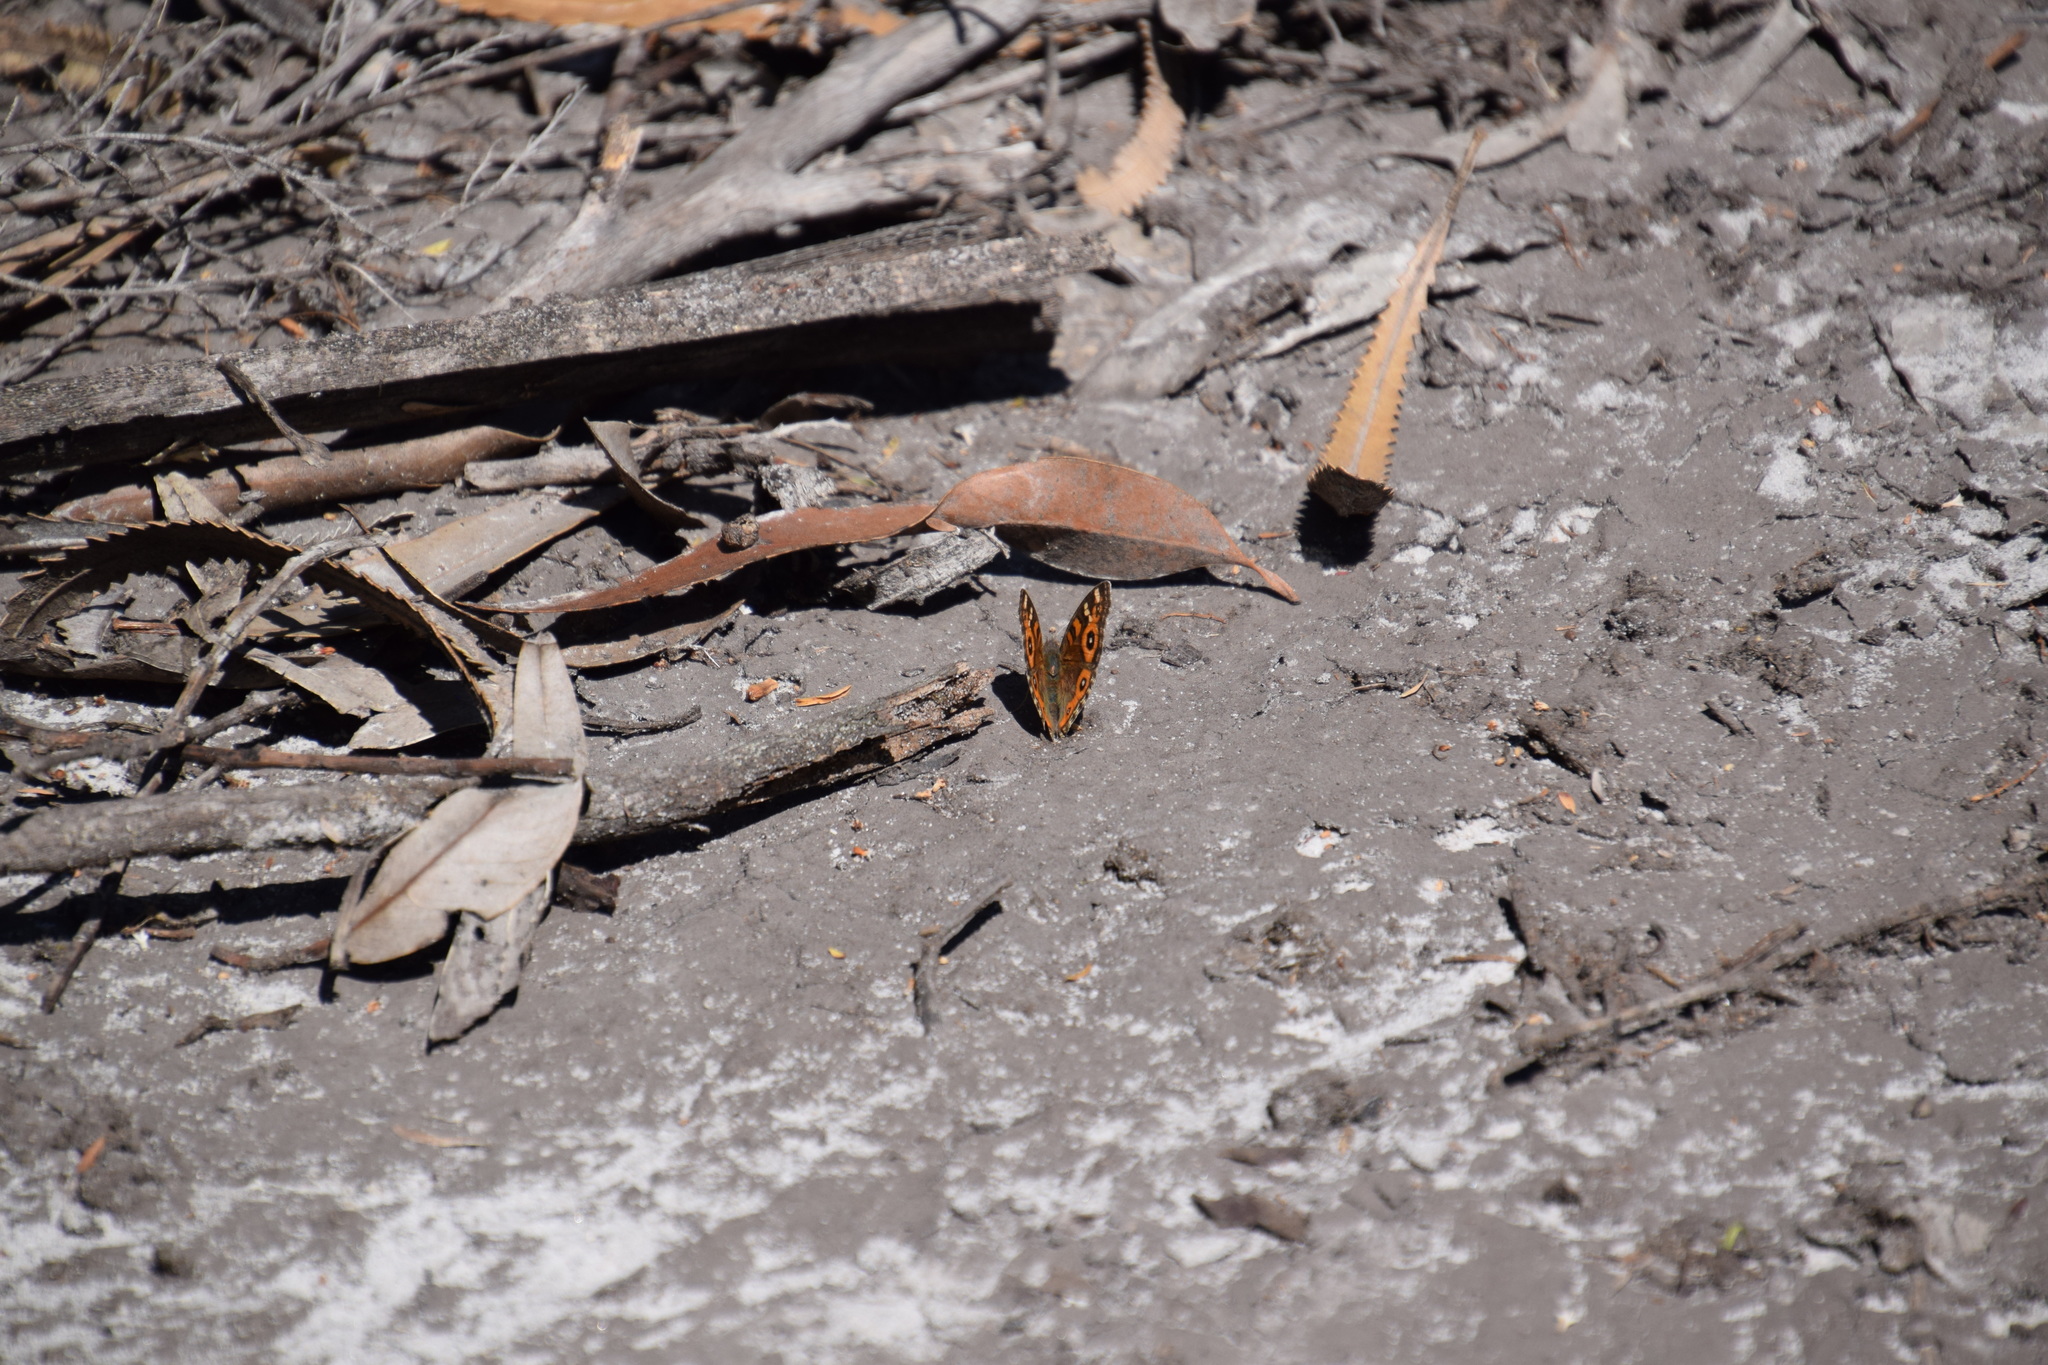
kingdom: Animalia
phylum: Arthropoda
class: Insecta
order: Lepidoptera
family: Nymphalidae
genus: Junonia
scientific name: Junonia villida
